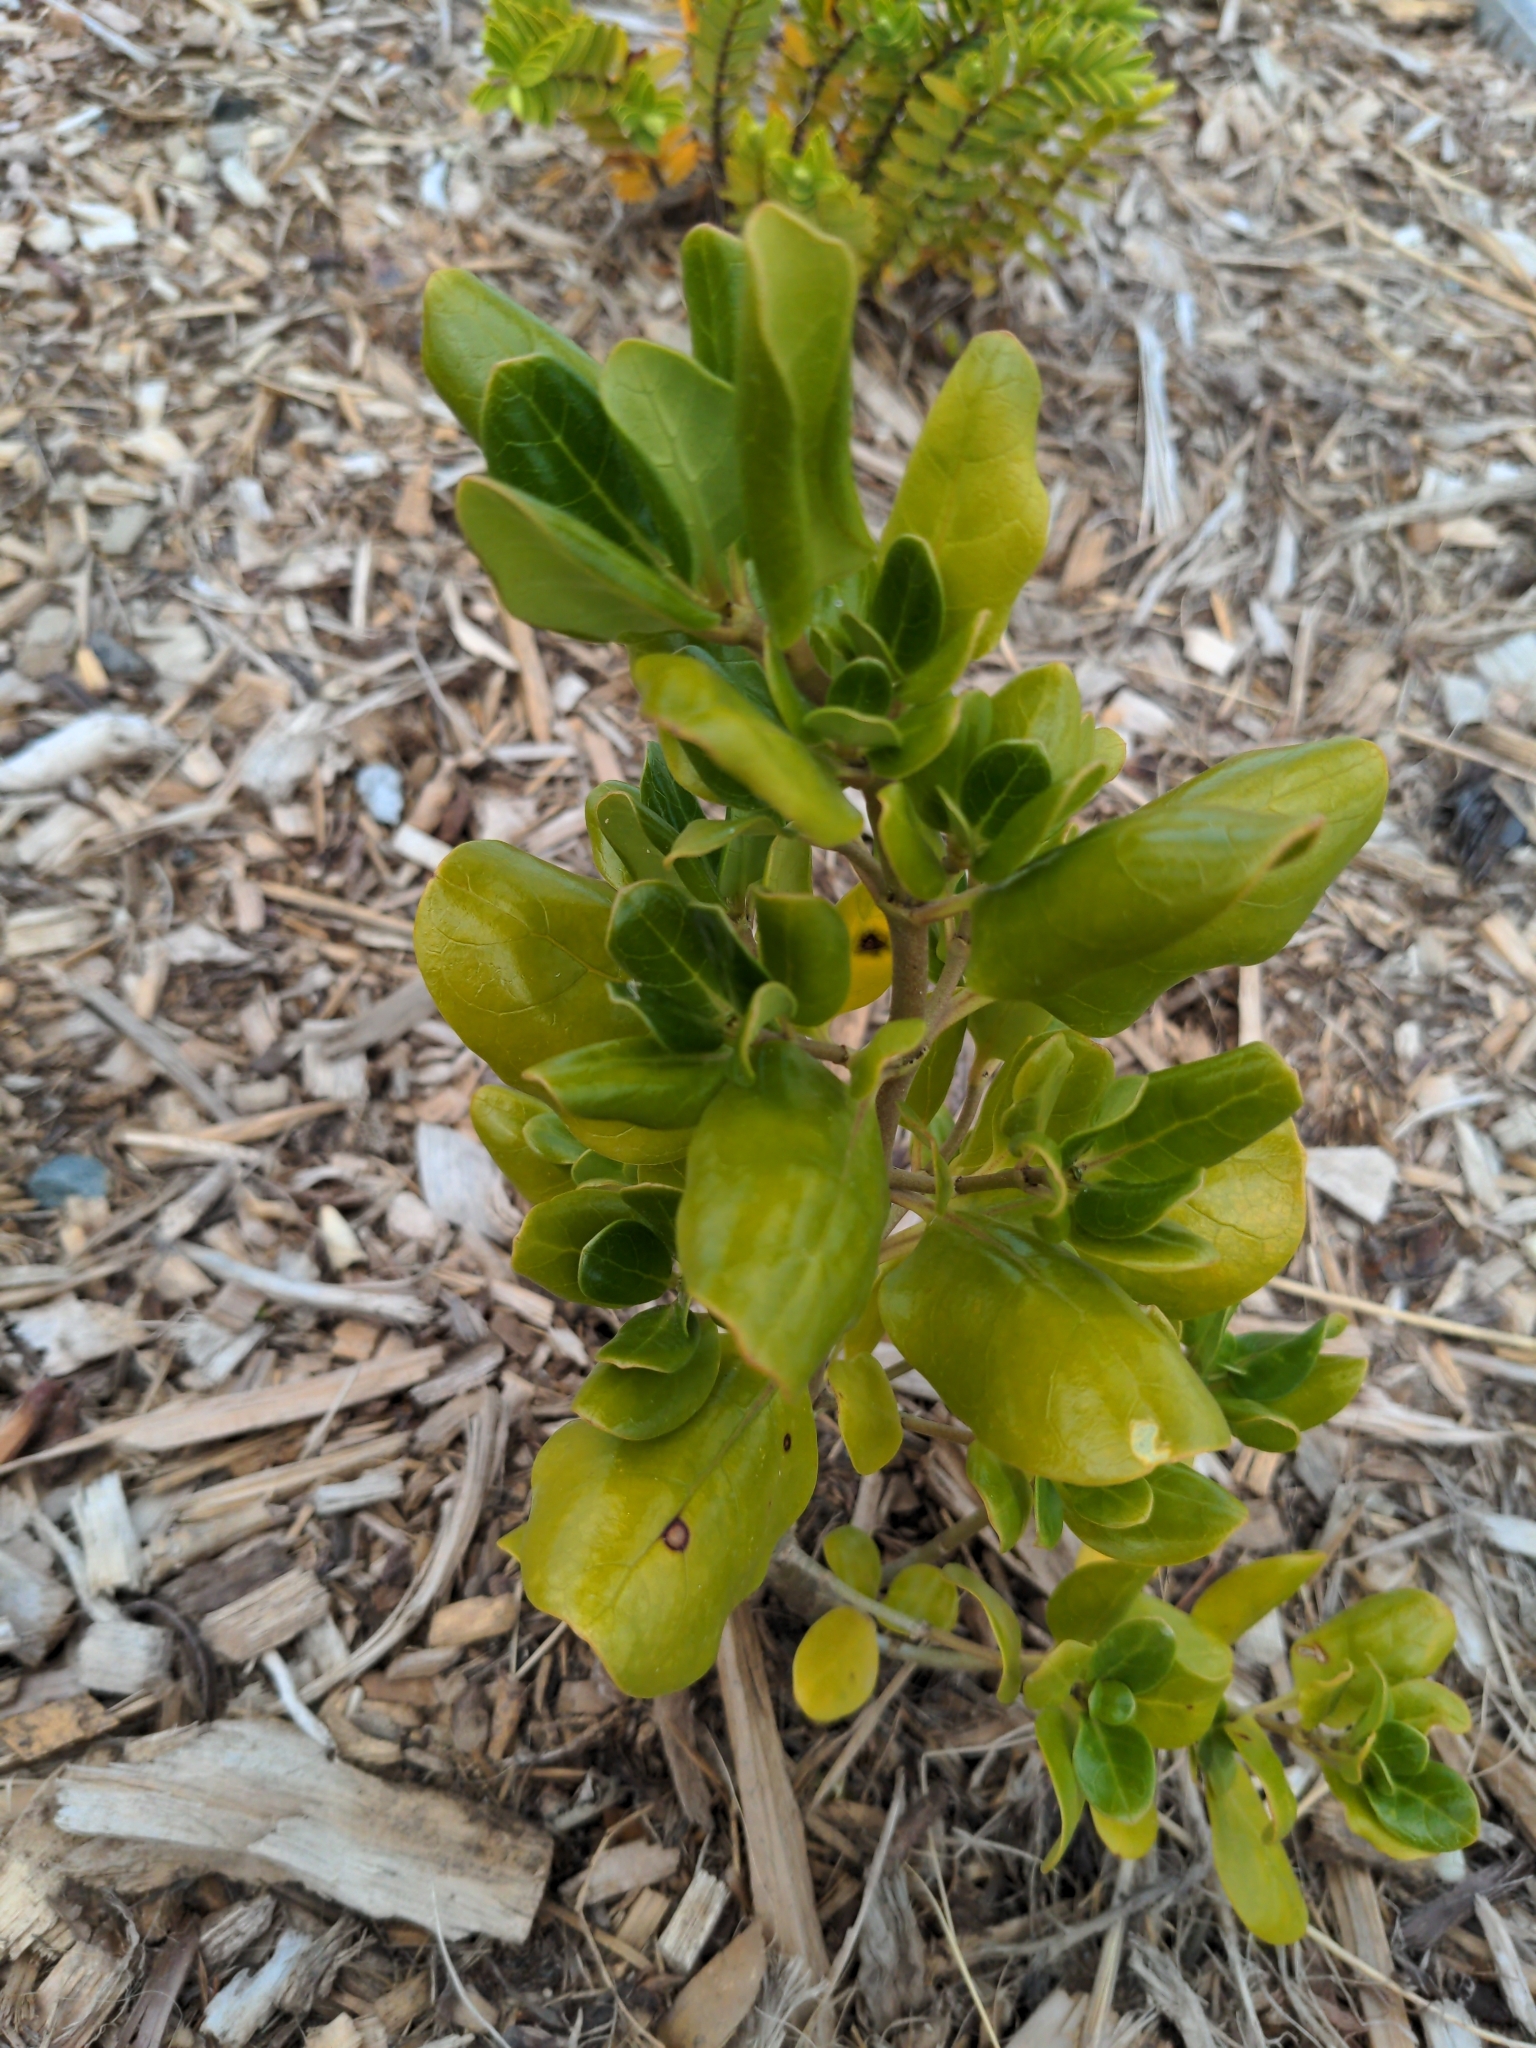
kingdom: Plantae
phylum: Tracheophyta
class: Magnoliopsida
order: Gentianales
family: Rubiaceae
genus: Coprosma
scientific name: Coprosma repens
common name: Tree bedstraw
